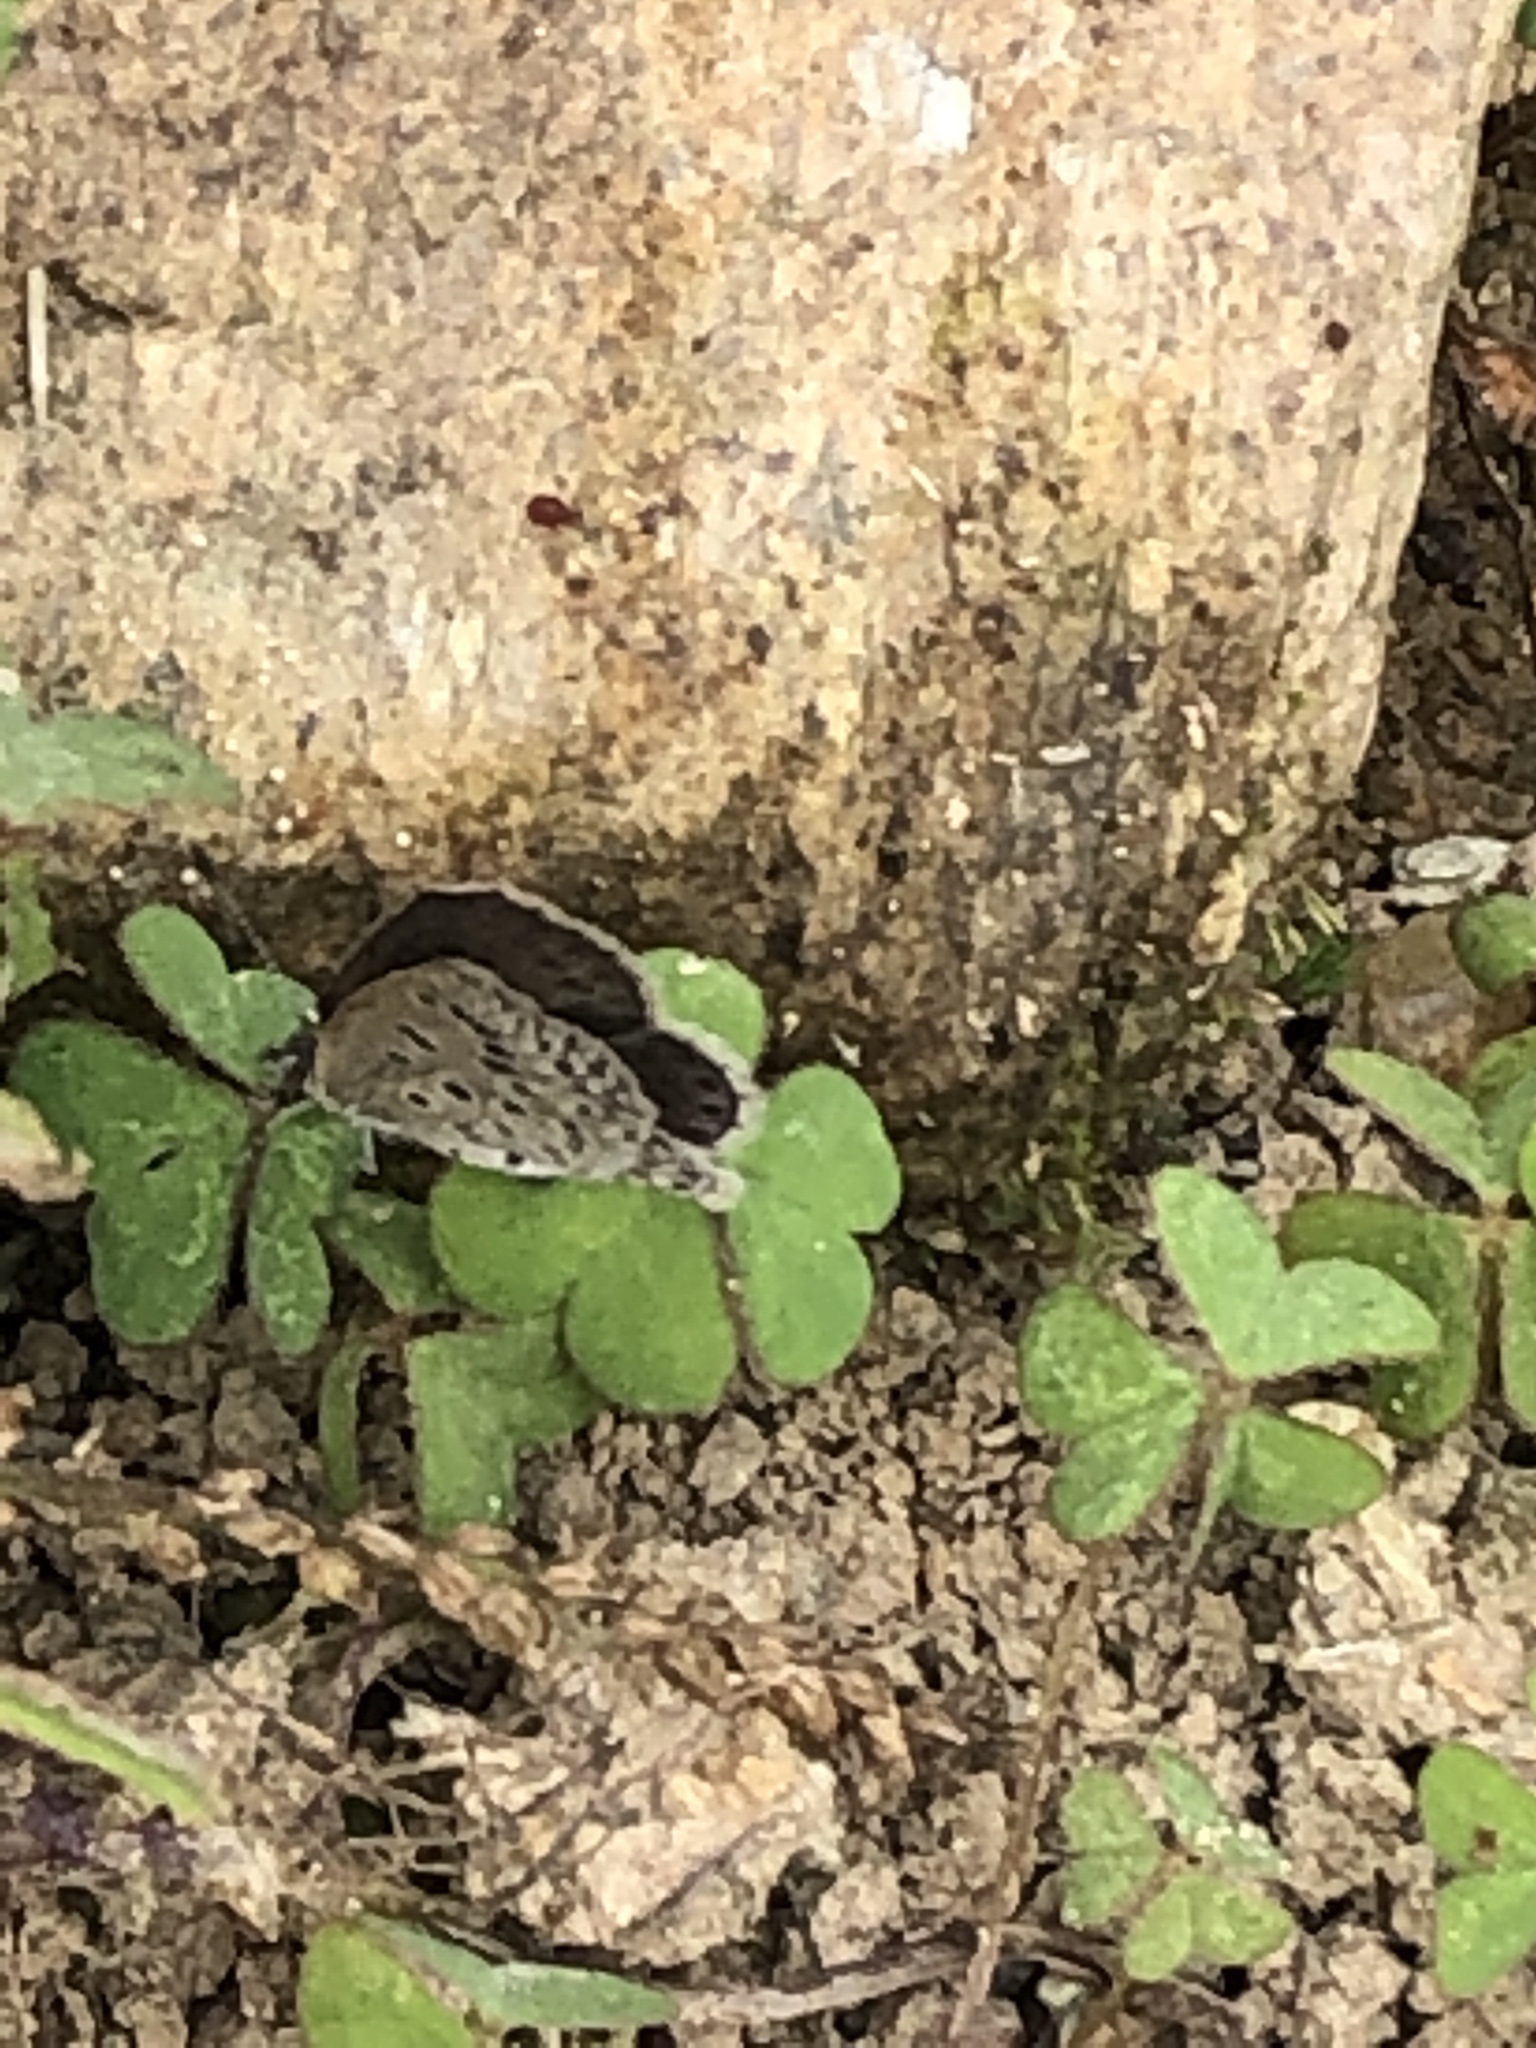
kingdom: Animalia
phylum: Arthropoda
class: Insecta
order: Lepidoptera
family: Lycaenidae
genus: Pseudozizeeria
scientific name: Pseudozizeeria maha
